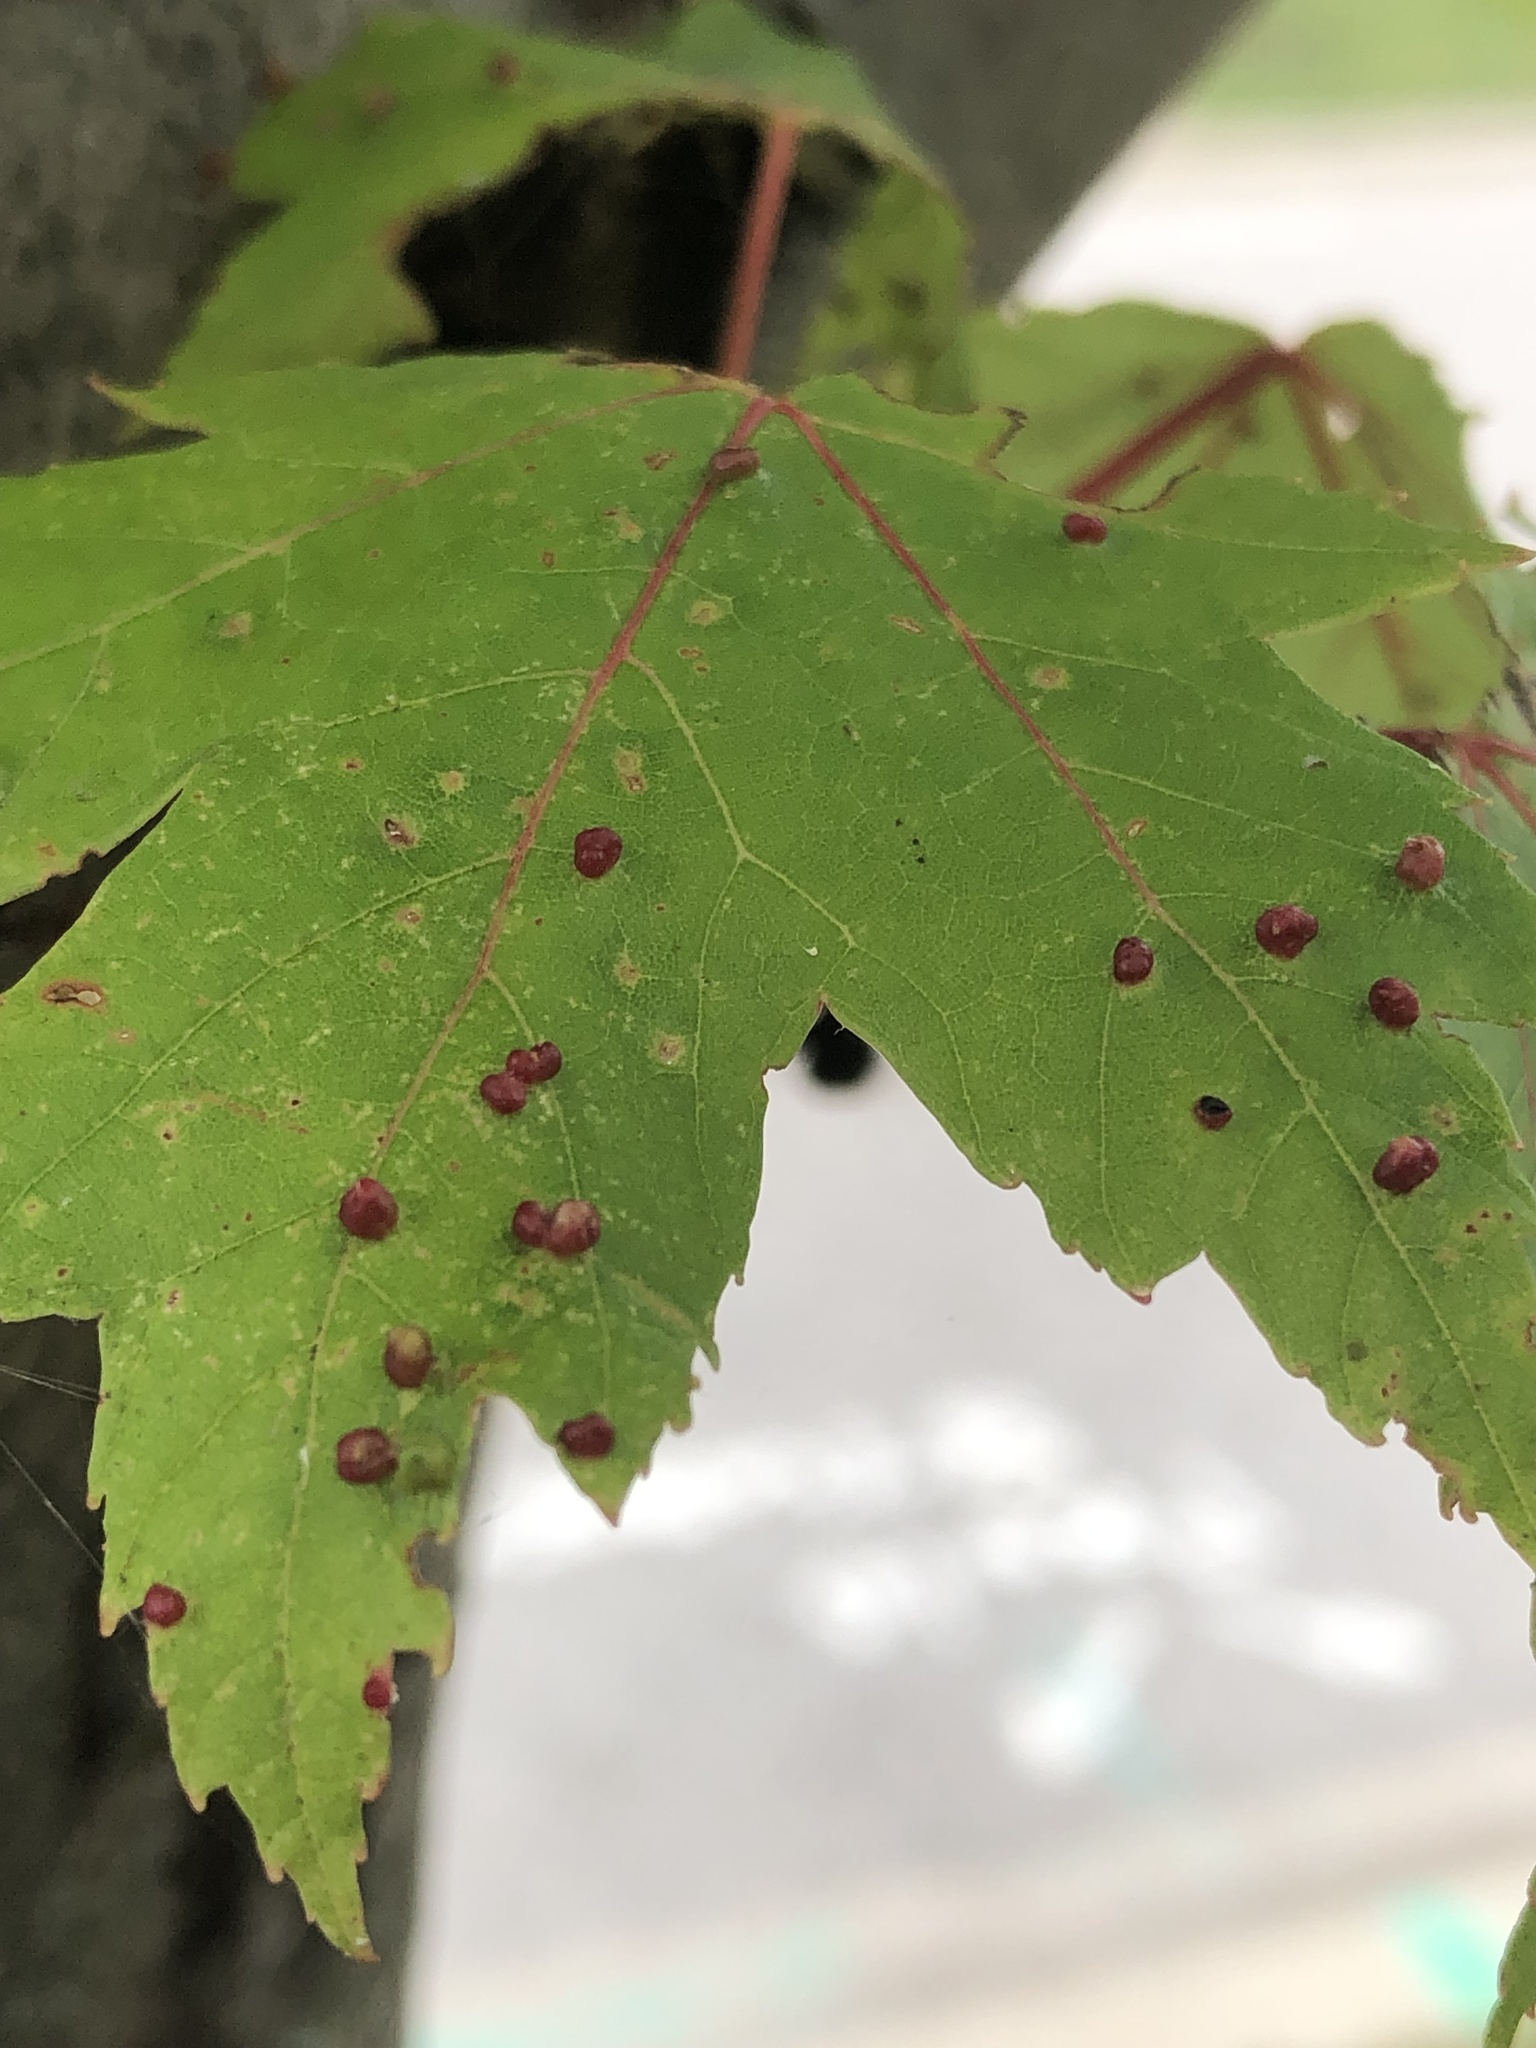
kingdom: Animalia
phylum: Arthropoda
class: Arachnida
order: Trombidiformes
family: Eriophyidae
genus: Vasates
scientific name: Vasates quadripedes
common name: Maple bladder gall mite
